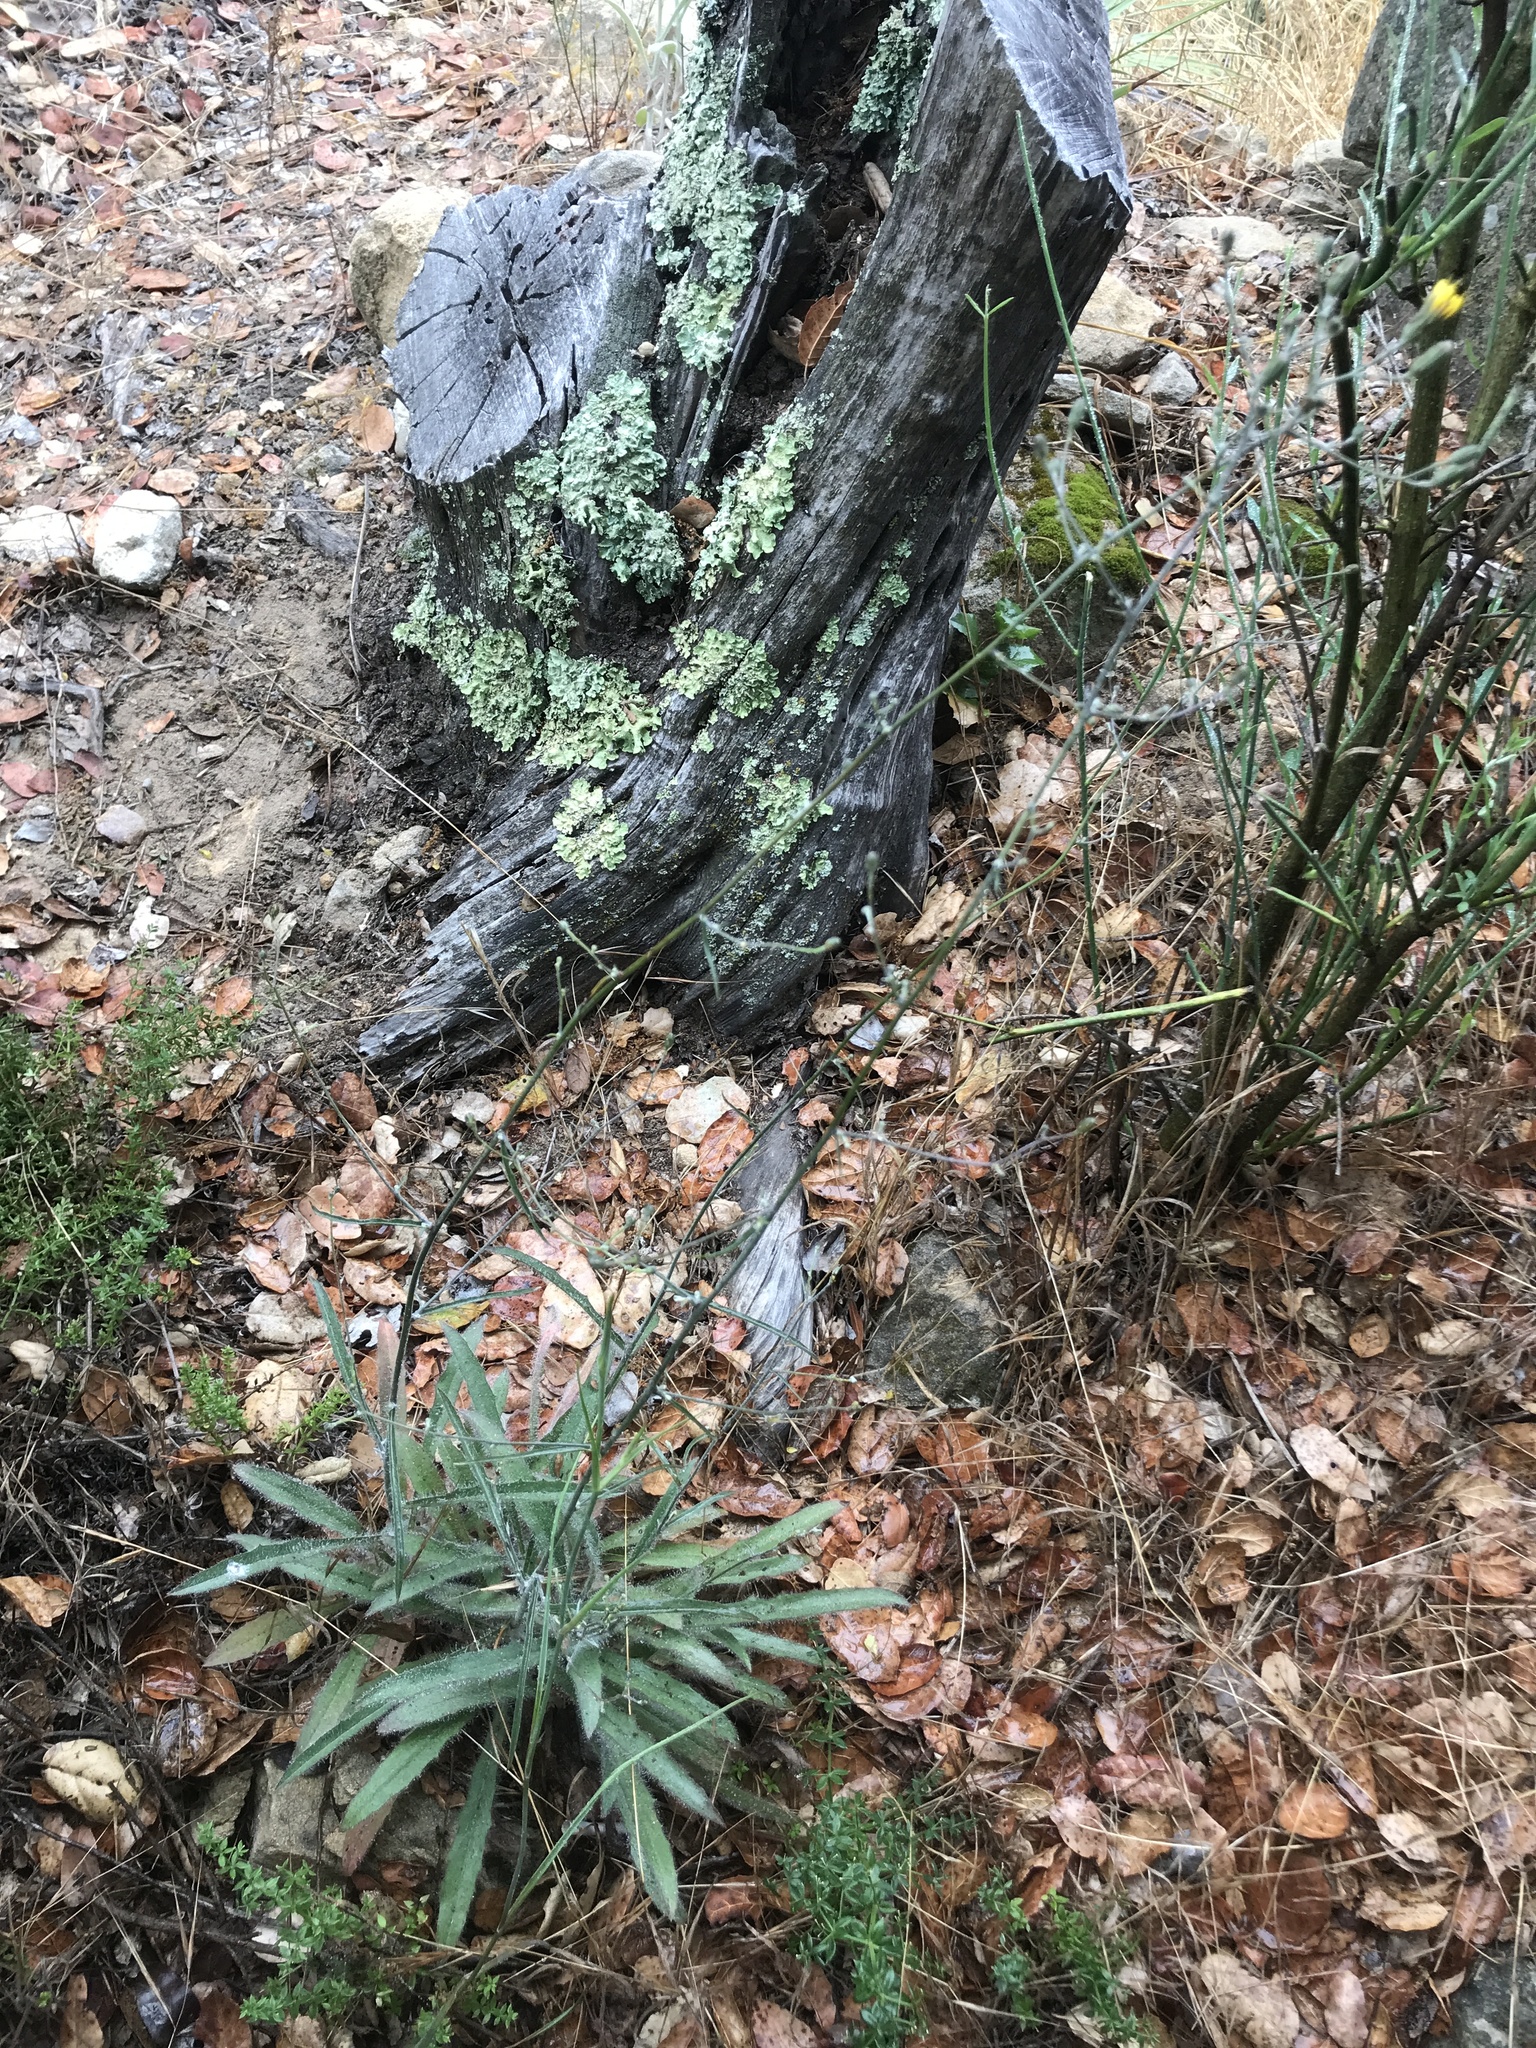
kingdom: Plantae
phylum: Tracheophyta
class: Magnoliopsida
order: Asterales
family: Asteraceae
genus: Hieracium
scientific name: Hieracium argutum
